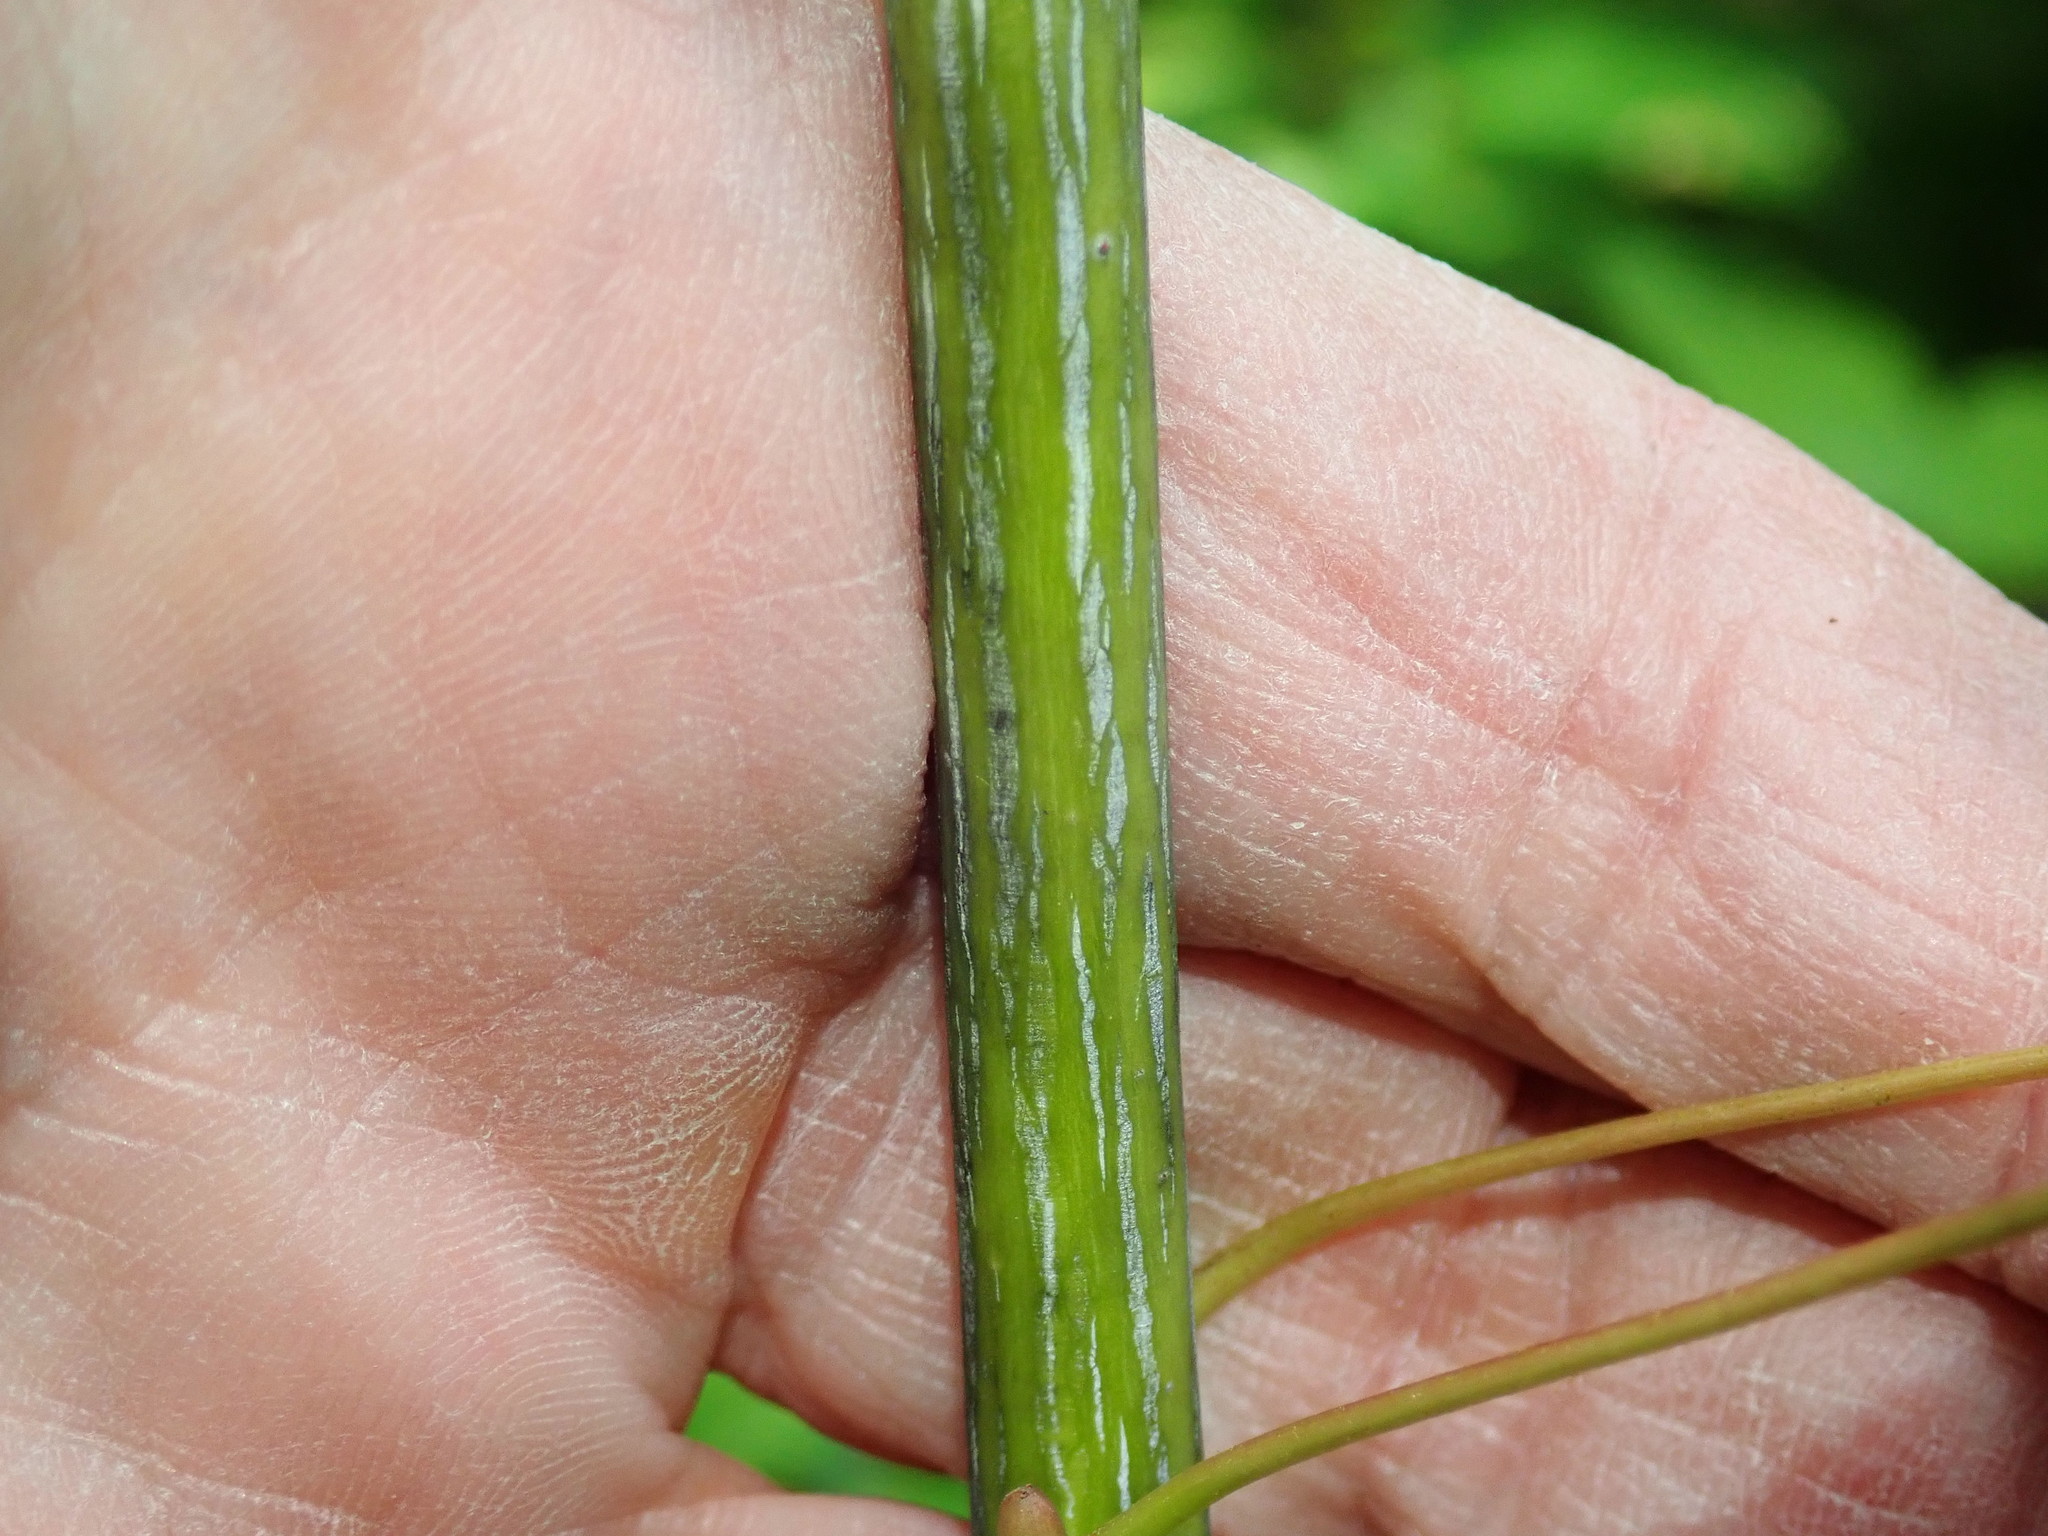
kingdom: Plantae
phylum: Tracheophyta
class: Magnoliopsida
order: Sapindales
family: Sapindaceae
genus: Acer
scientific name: Acer pensylvanicum
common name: Moosewood
